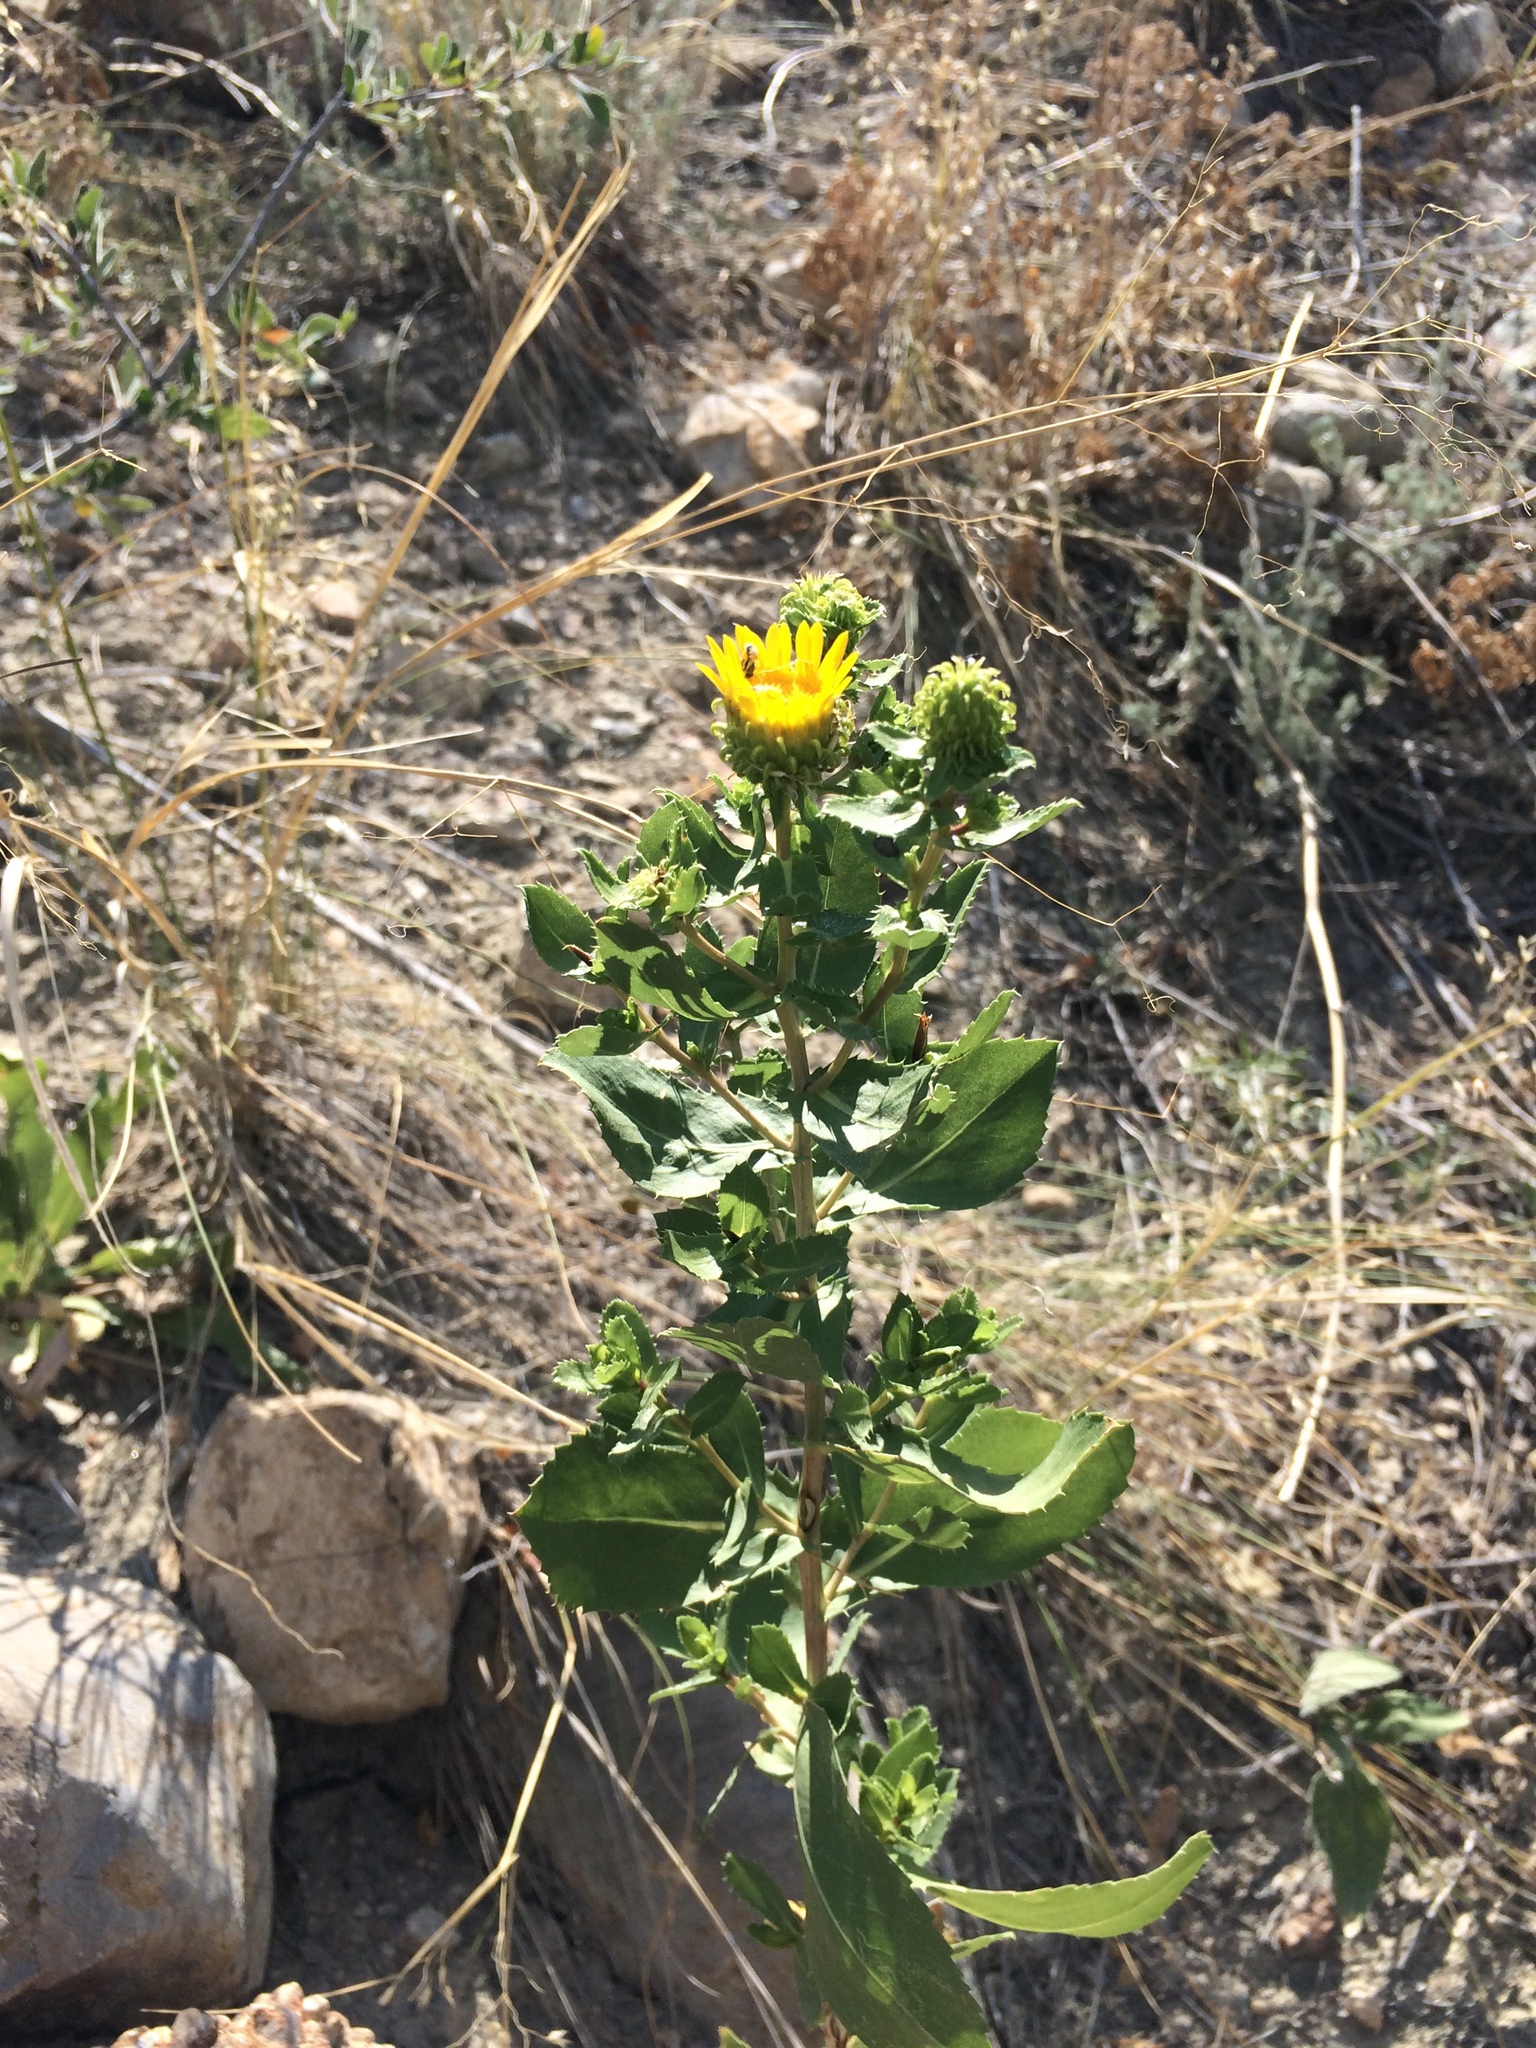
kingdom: Plantae
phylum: Tracheophyta
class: Magnoliopsida
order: Asterales
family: Asteraceae
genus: Grindelia
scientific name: Grindelia subalpina
